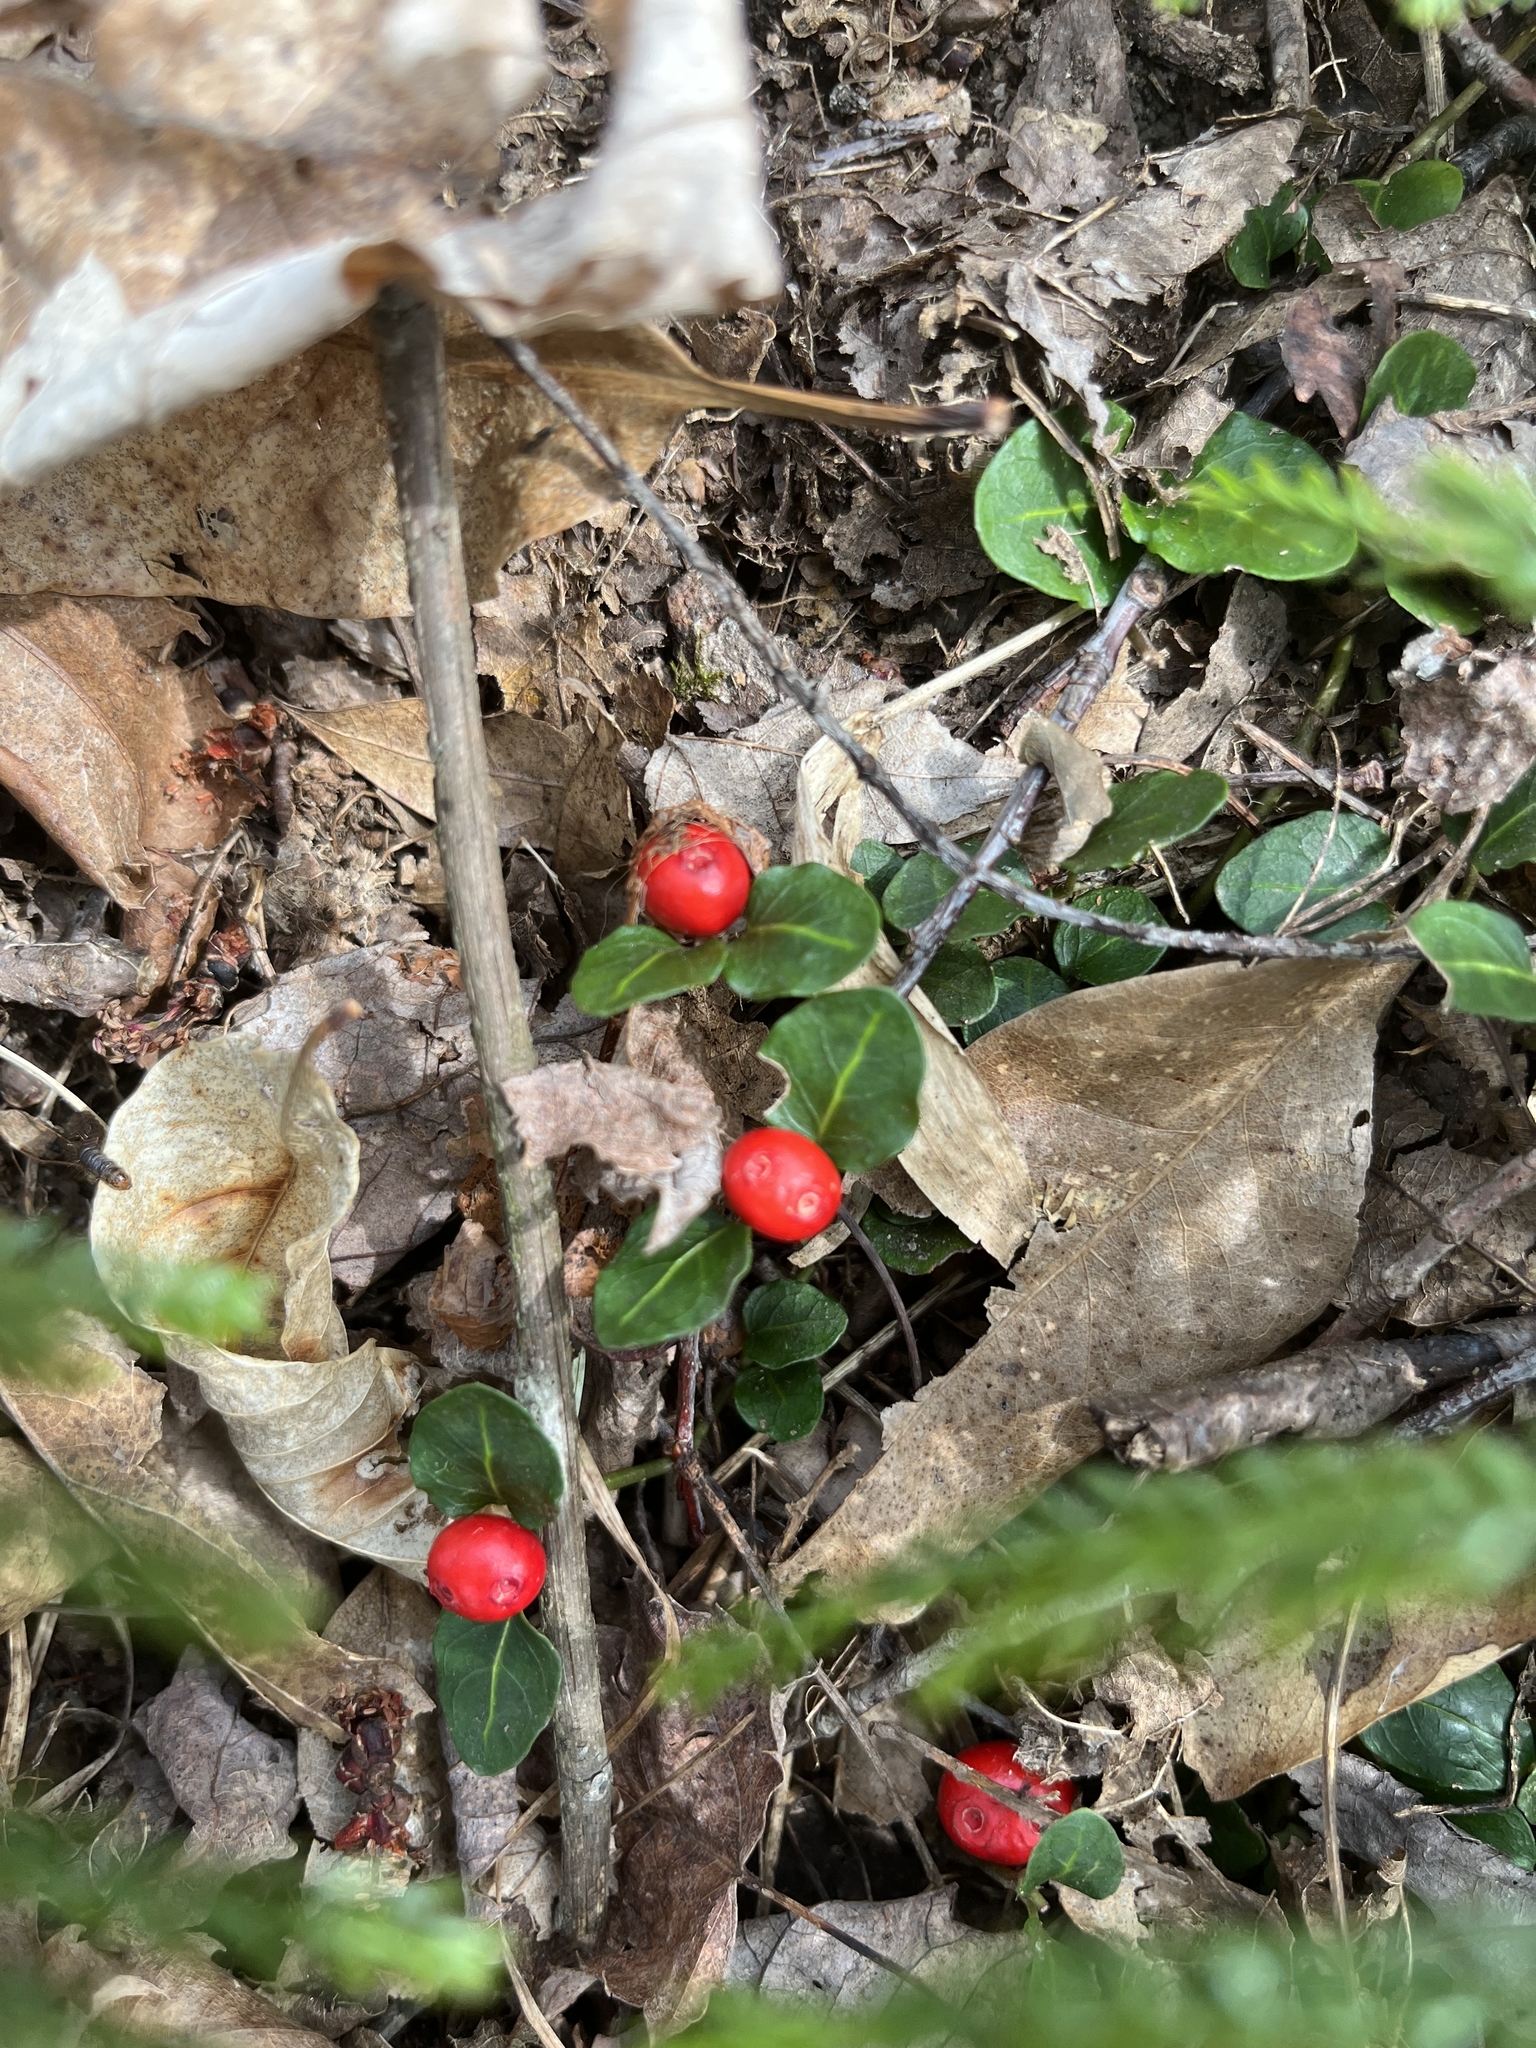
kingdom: Plantae
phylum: Tracheophyta
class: Magnoliopsida
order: Gentianales
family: Rubiaceae
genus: Mitchella
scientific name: Mitchella repens
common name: Partridge-berry
